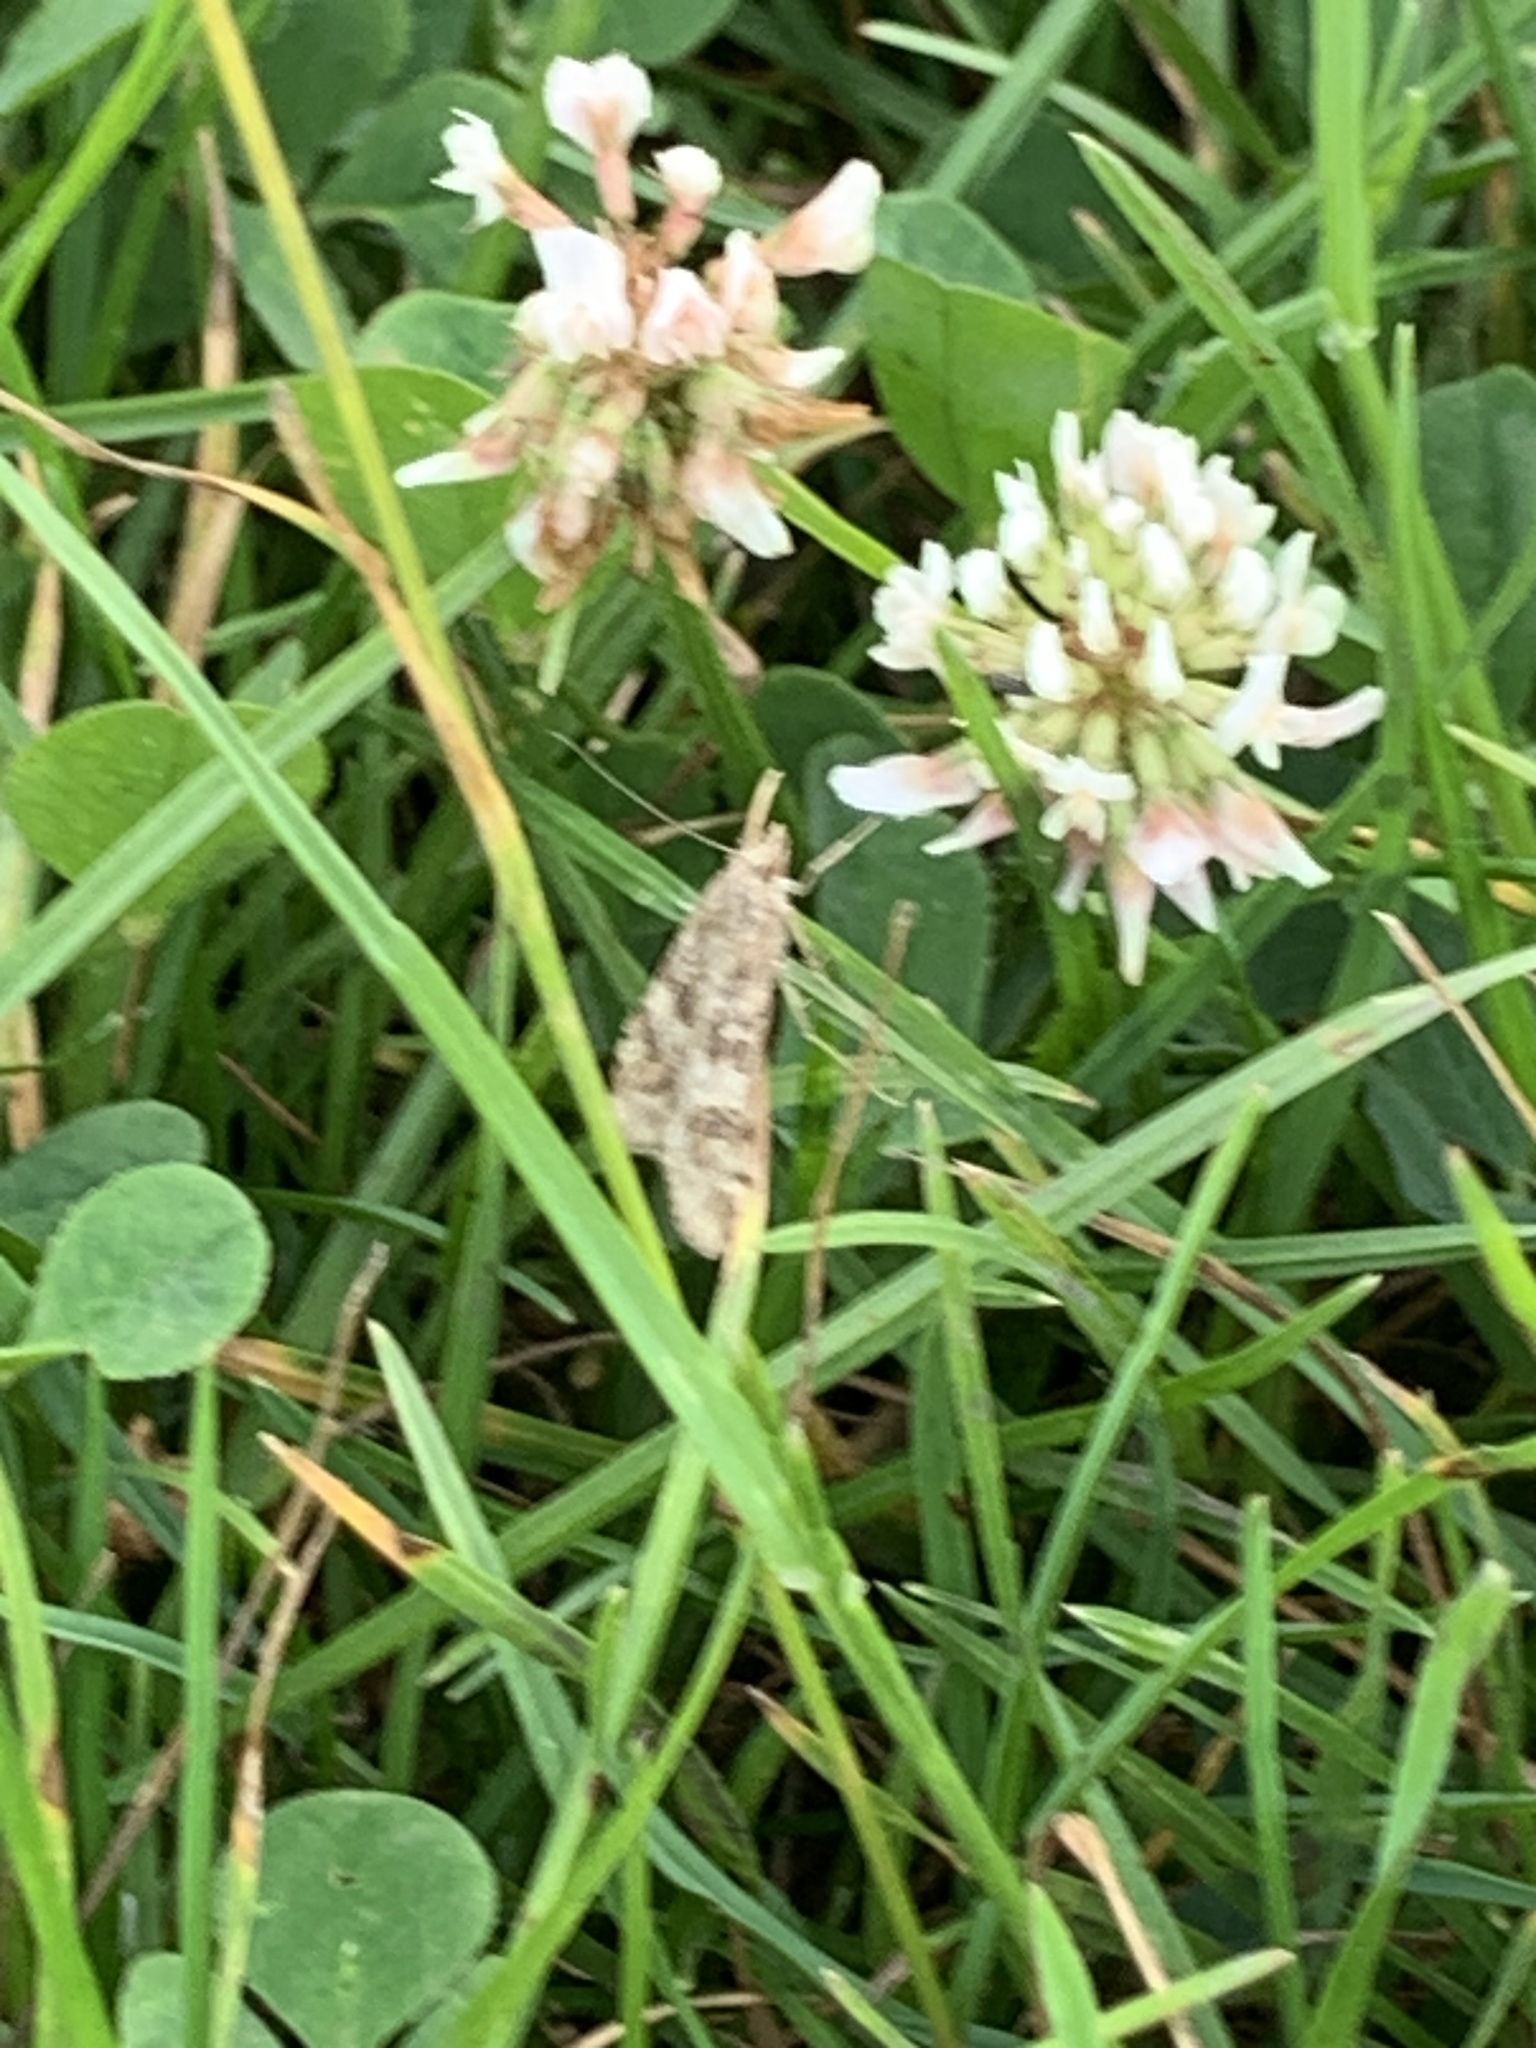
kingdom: Animalia
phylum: Arthropoda
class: Insecta
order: Lepidoptera
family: Crambidae
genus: Nomophila
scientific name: Nomophila noctuella
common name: Rush veneer
